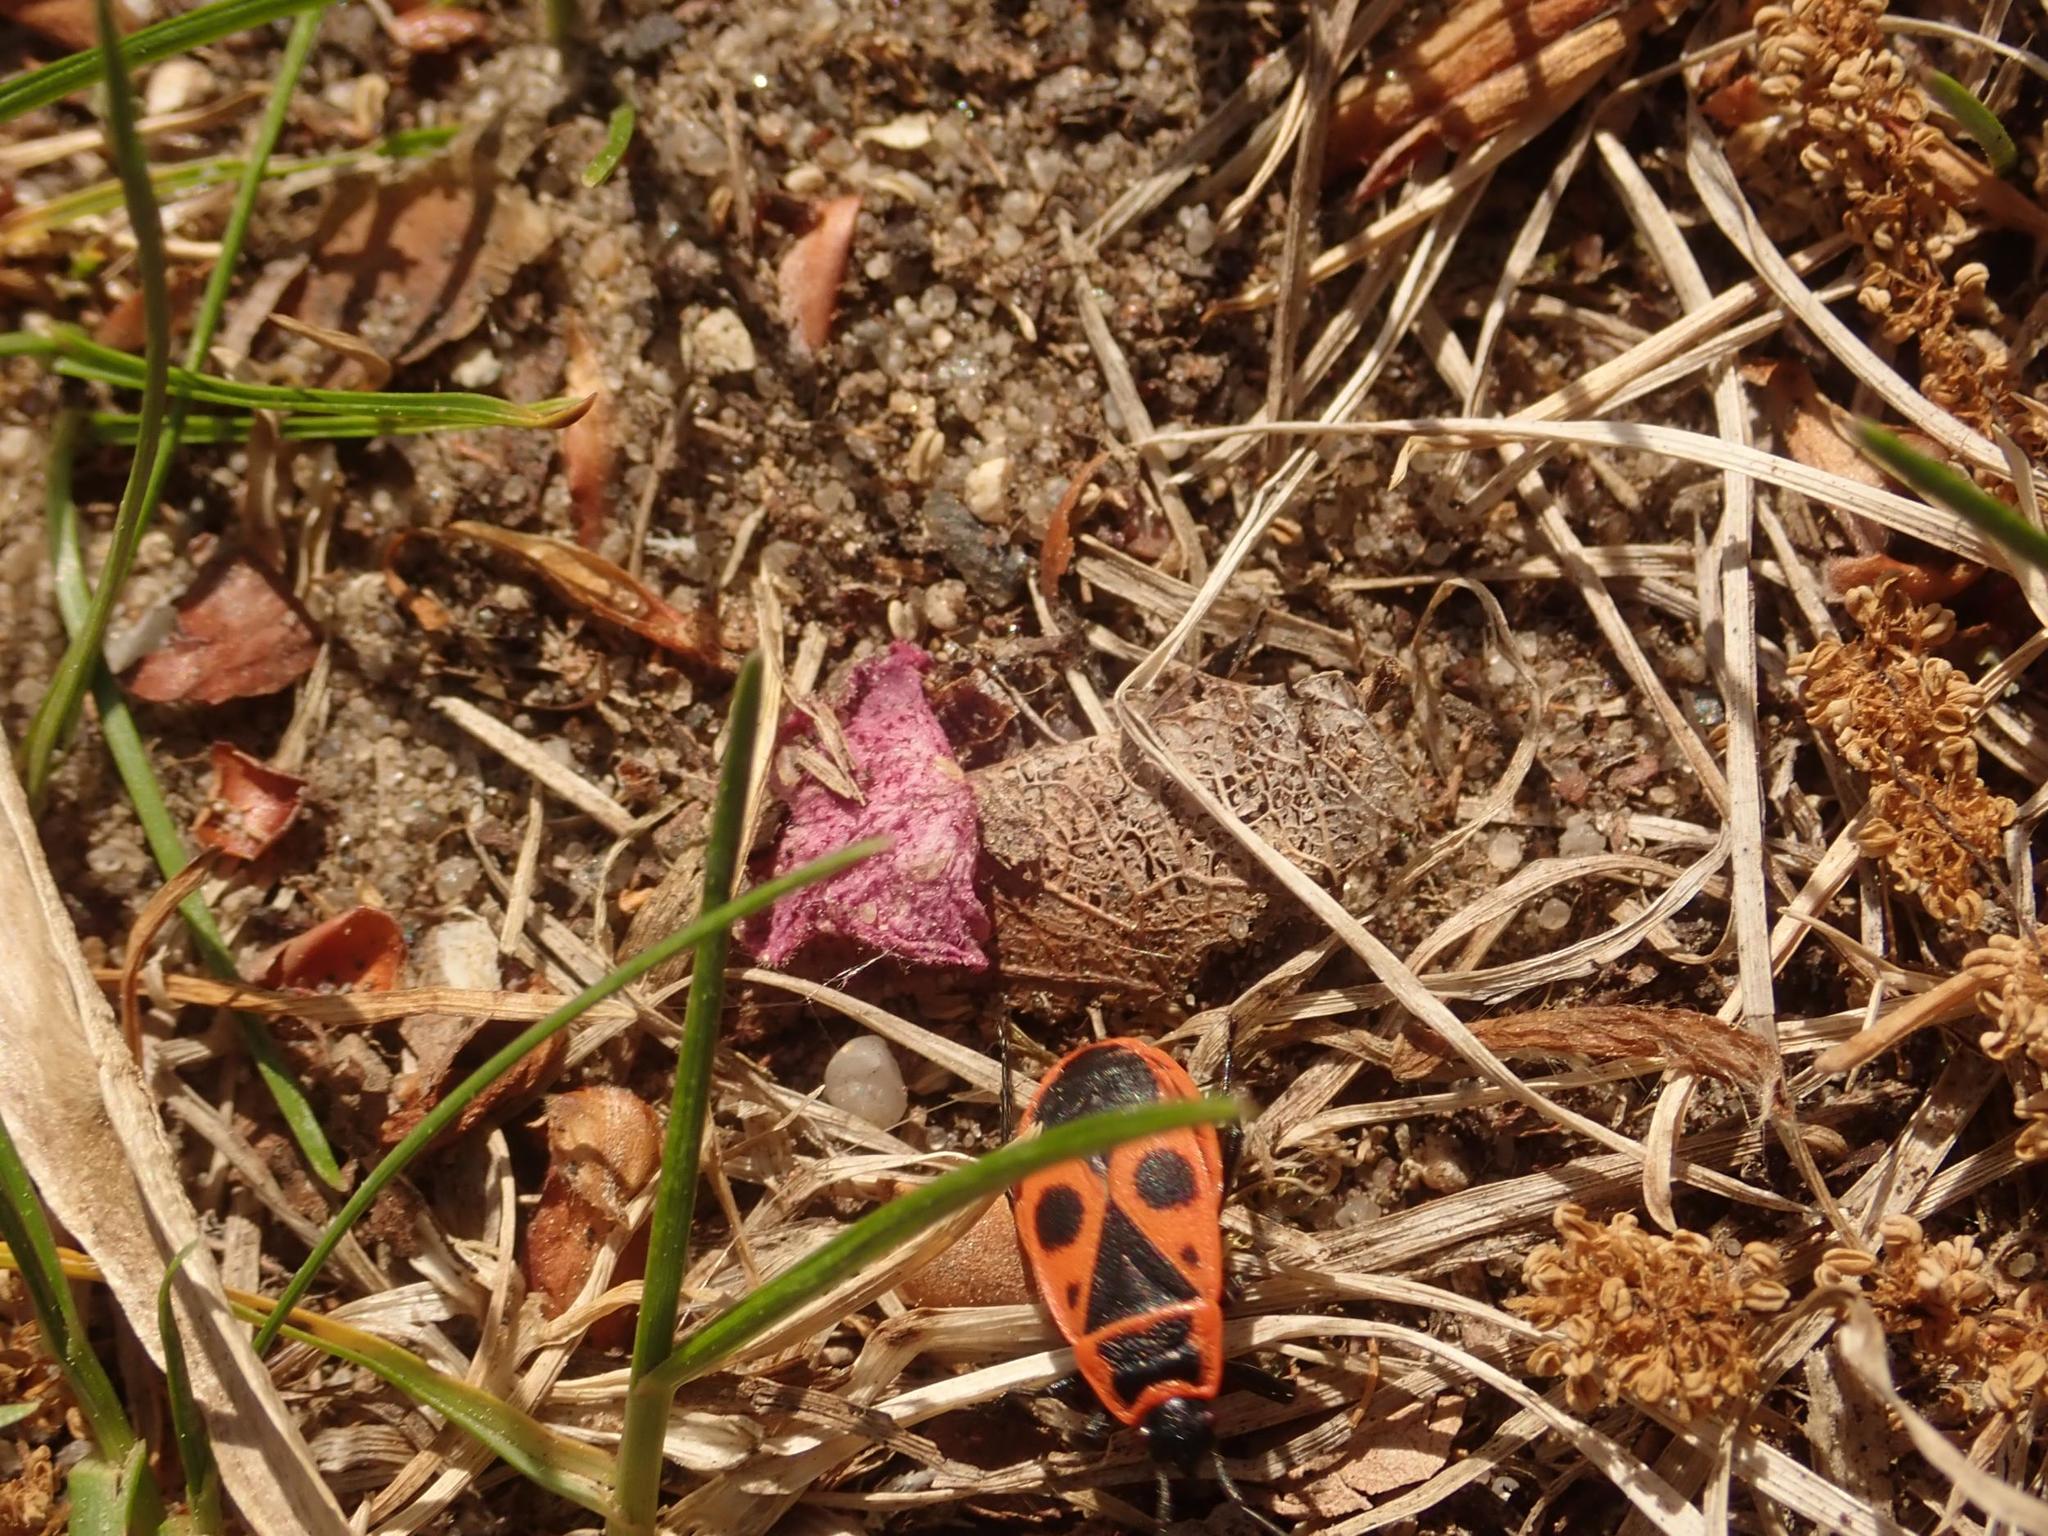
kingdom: Animalia
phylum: Arthropoda
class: Insecta
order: Hemiptera
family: Pyrrhocoridae
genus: Pyrrhocoris
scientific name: Pyrrhocoris apterus
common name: Firebug
